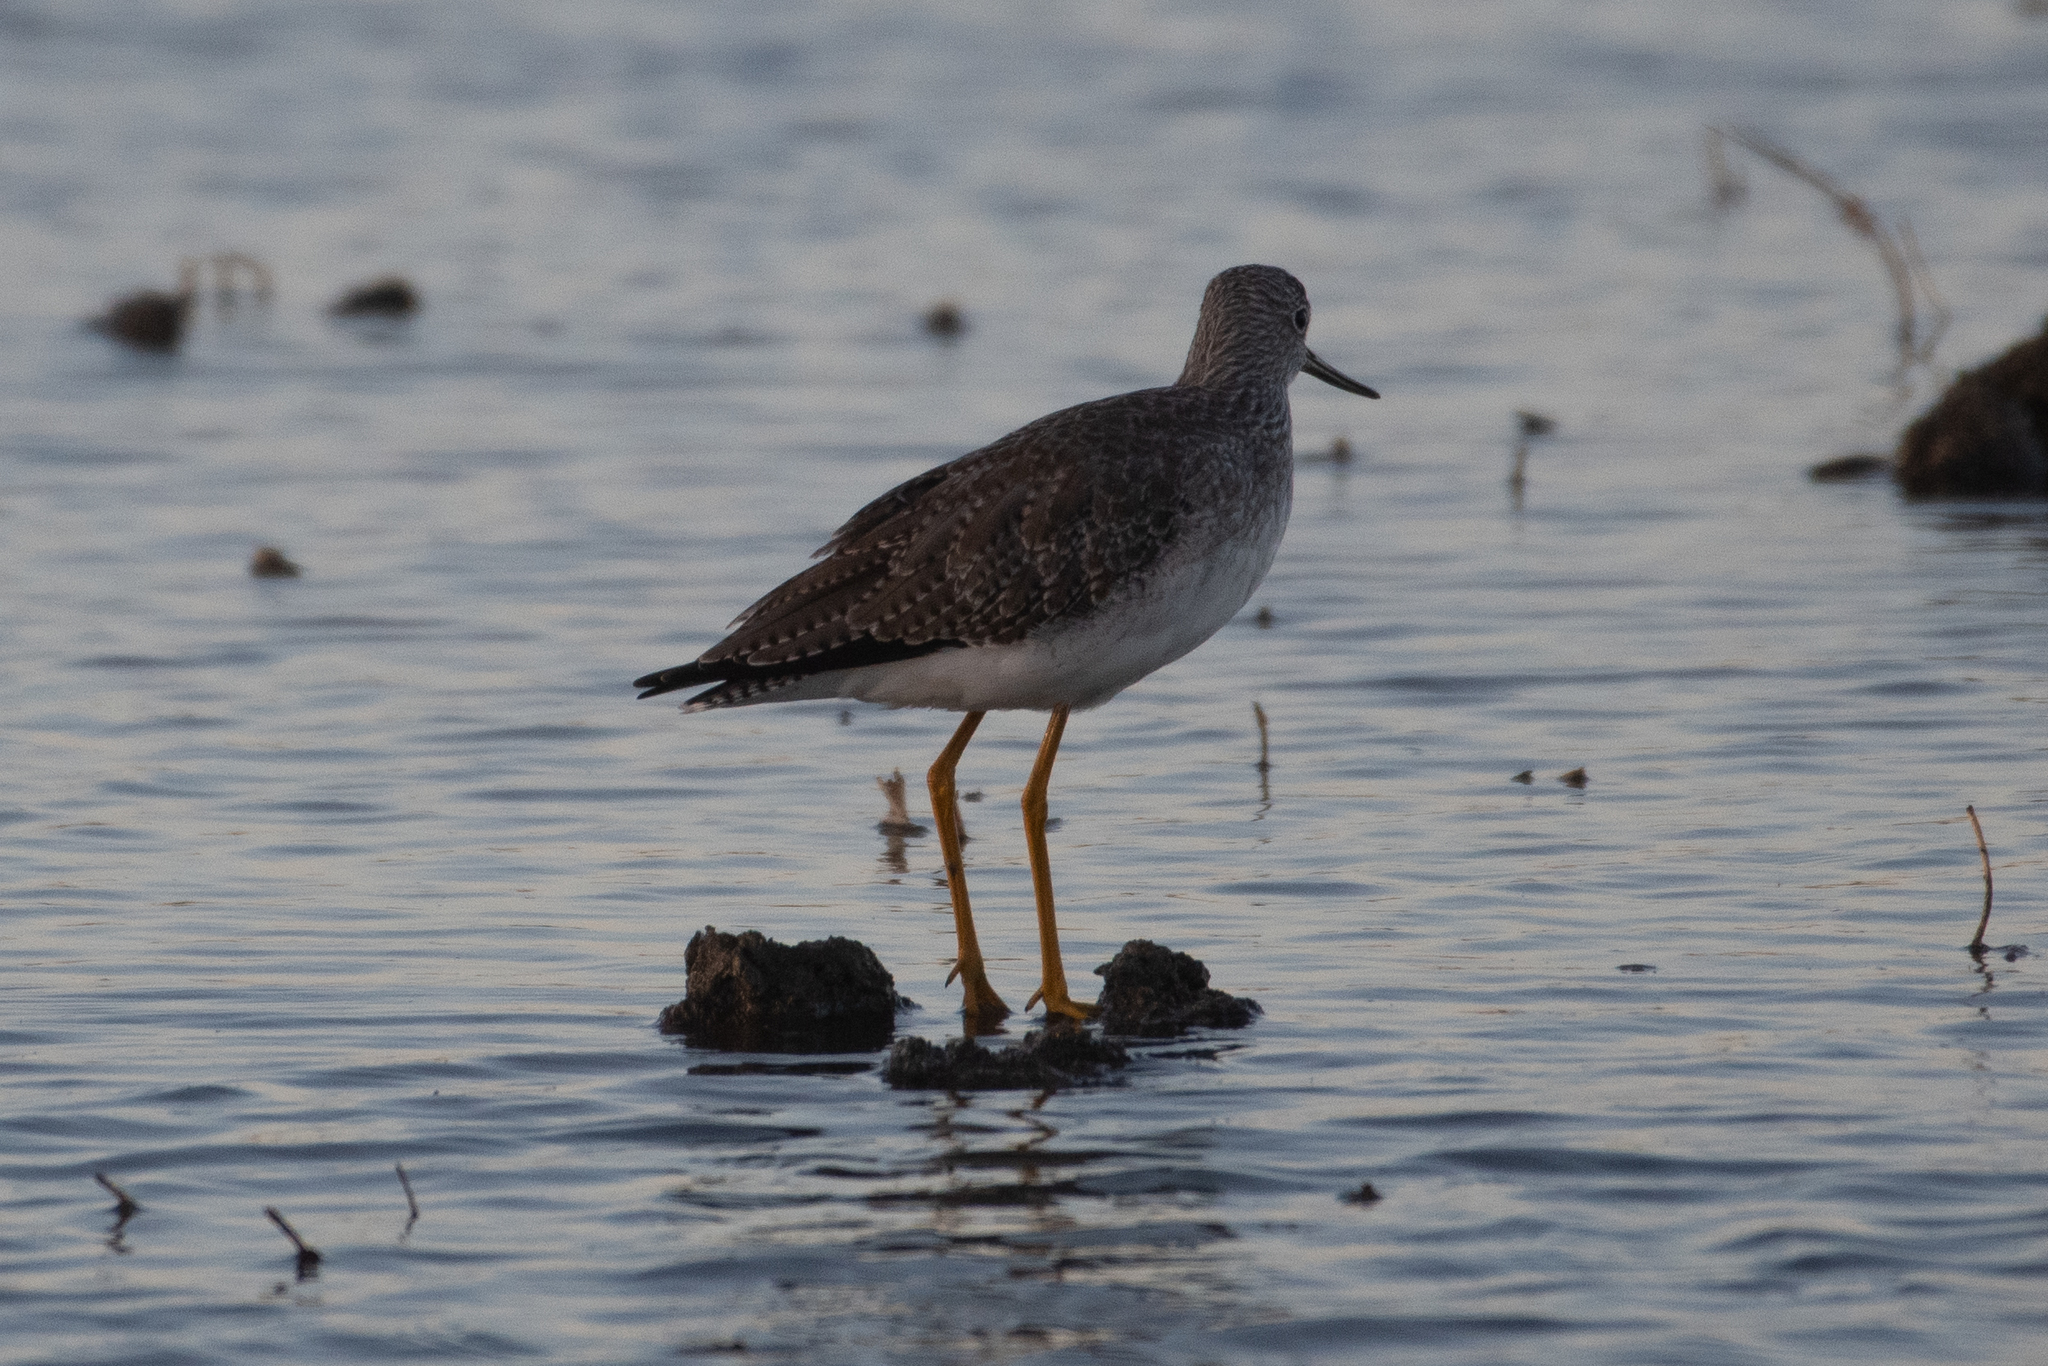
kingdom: Animalia
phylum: Chordata
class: Aves
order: Charadriiformes
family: Scolopacidae
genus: Tringa
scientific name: Tringa melanoleuca
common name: Greater yellowlegs
